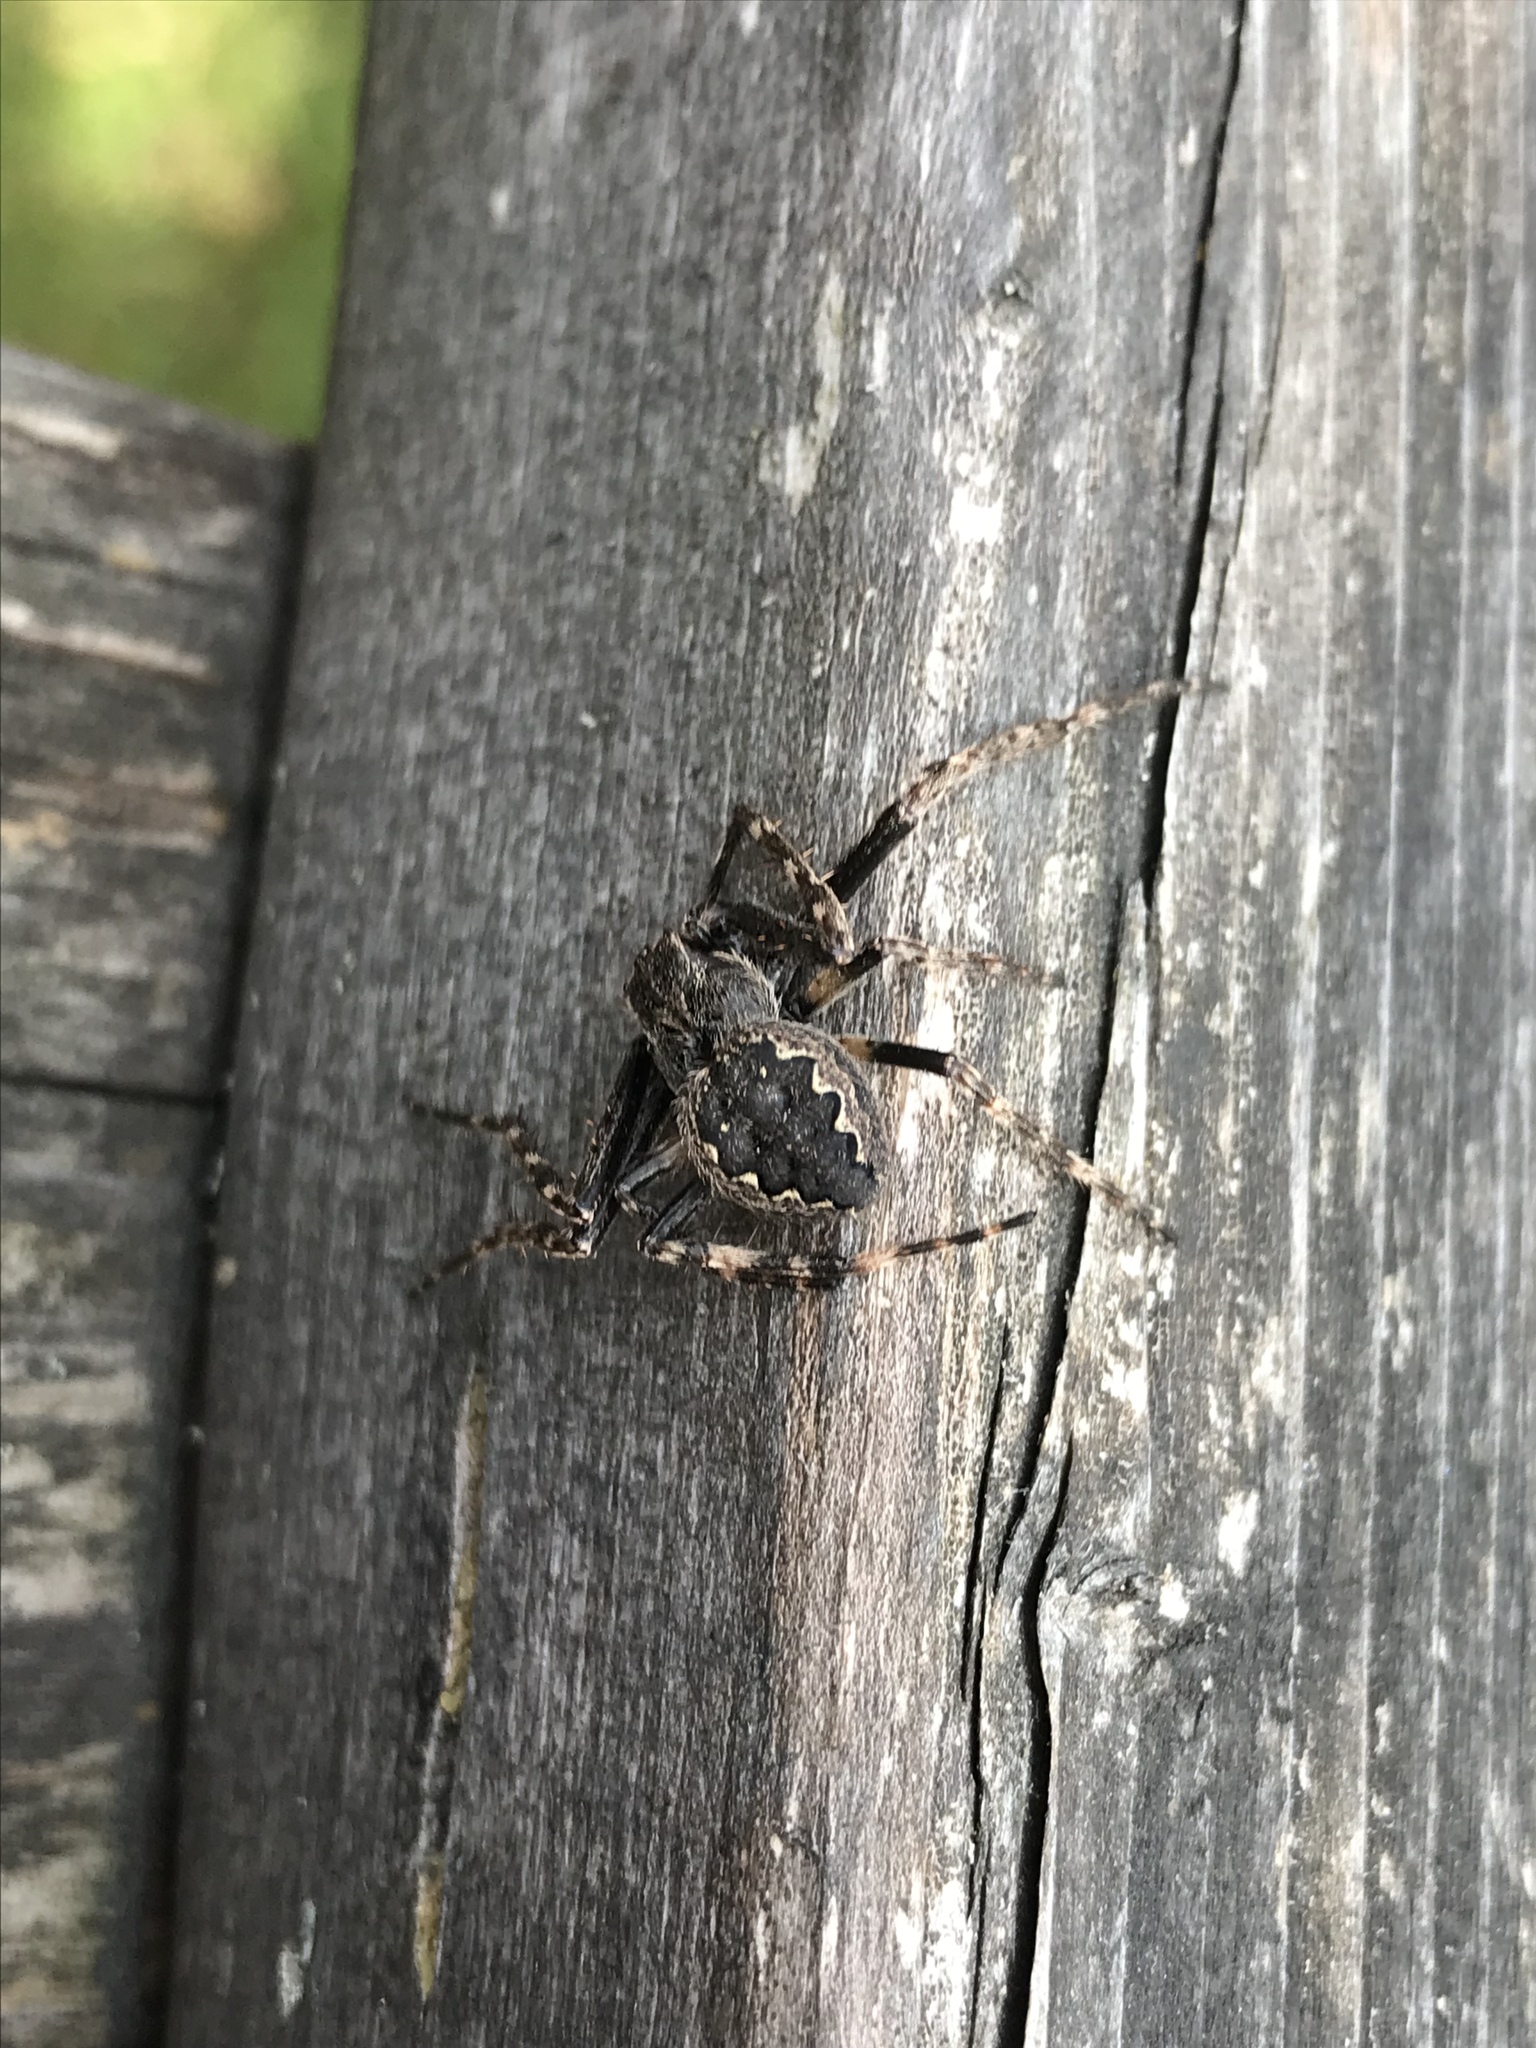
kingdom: Animalia
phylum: Arthropoda
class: Arachnida
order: Araneae
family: Araneidae
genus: Nuctenea
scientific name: Nuctenea umbratica
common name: Toad spider
